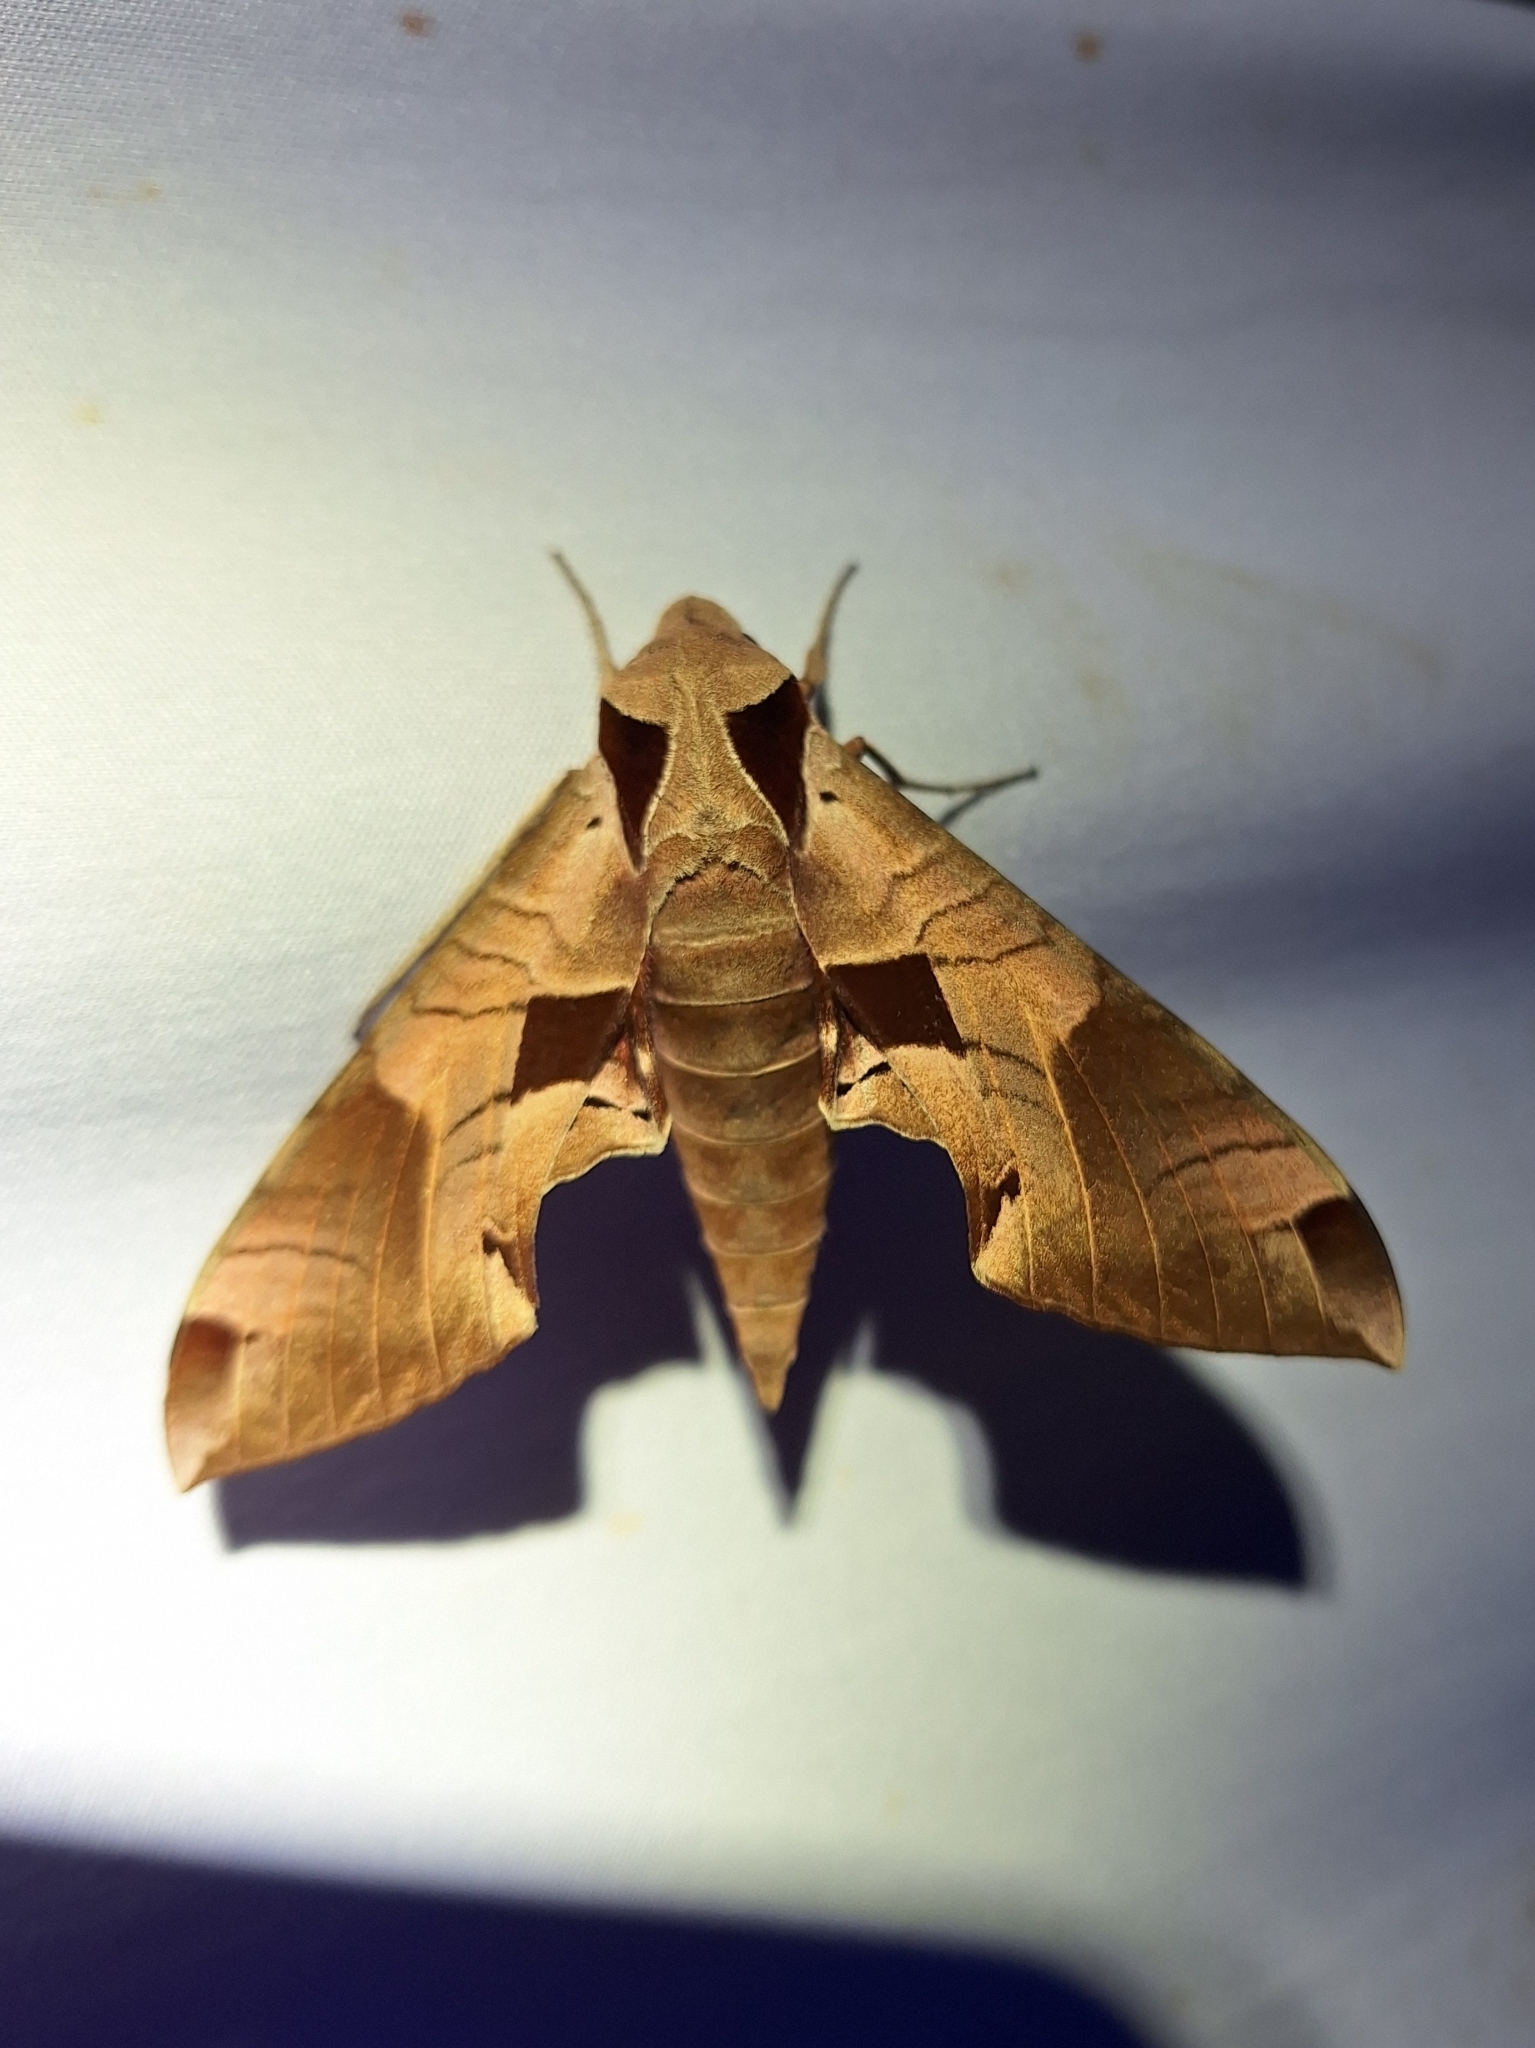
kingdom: Animalia
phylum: Arthropoda
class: Insecta
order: Lepidoptera
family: Sphingidae
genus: Eumorpha
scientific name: Eumorpha achemon
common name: Achemon sphinx
